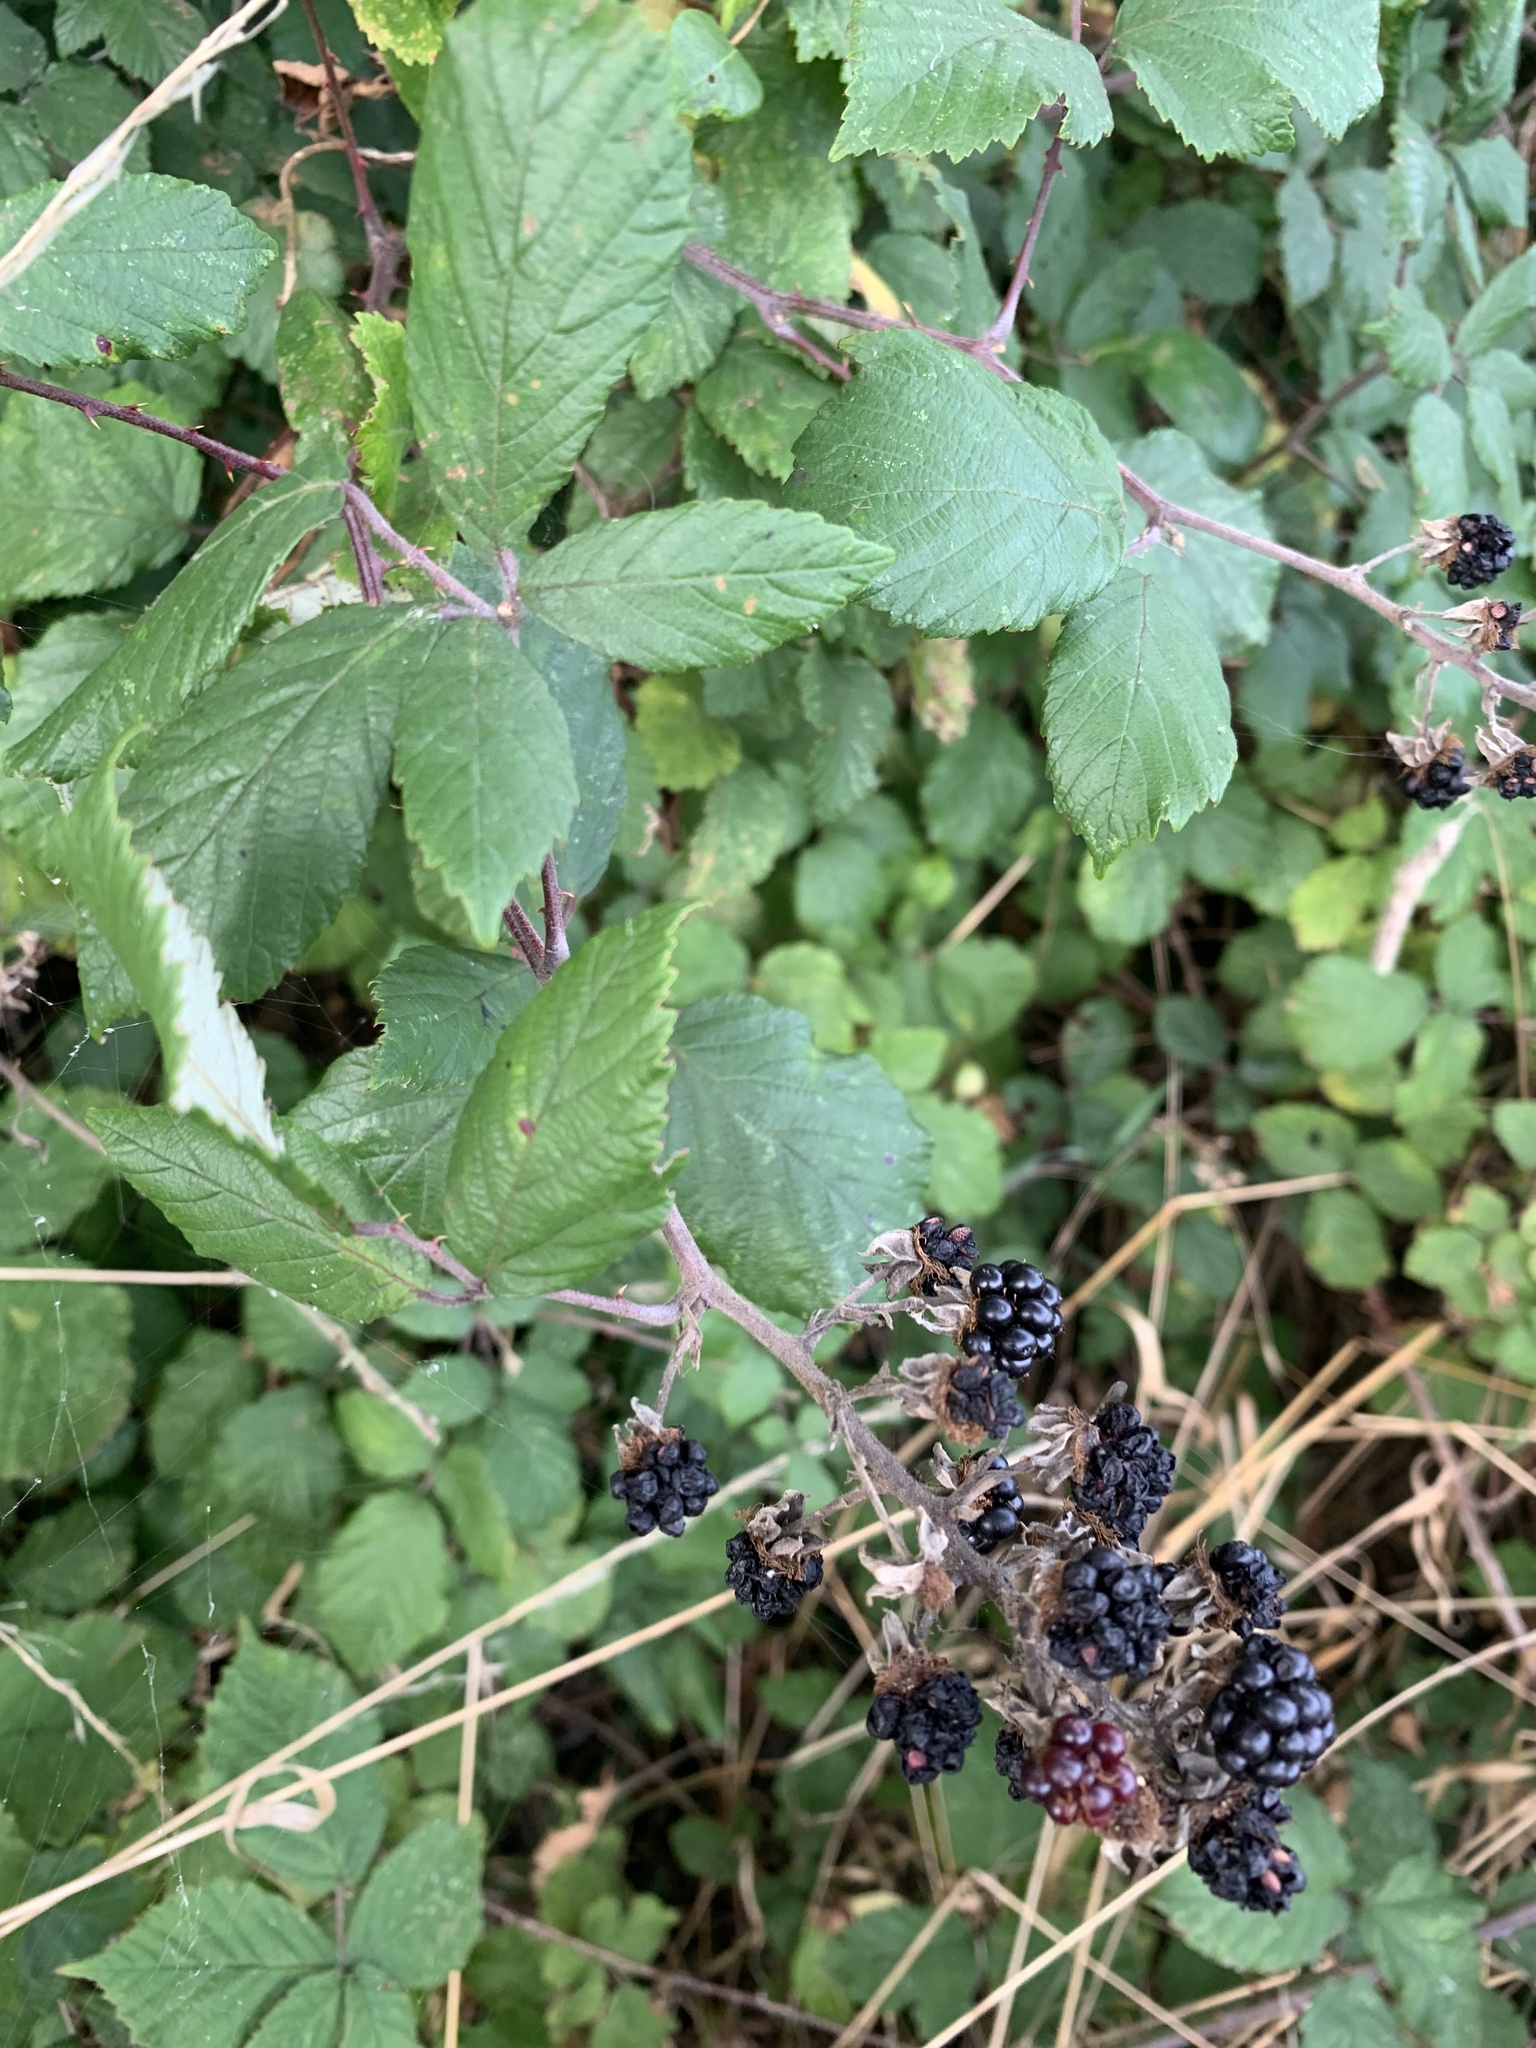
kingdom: Plantae
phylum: Tracheophyta
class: Magnoliopsida
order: Rosales
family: Rosaceae
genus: Rubus
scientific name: Rubus fruticosus
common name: Blackberry, bramble
